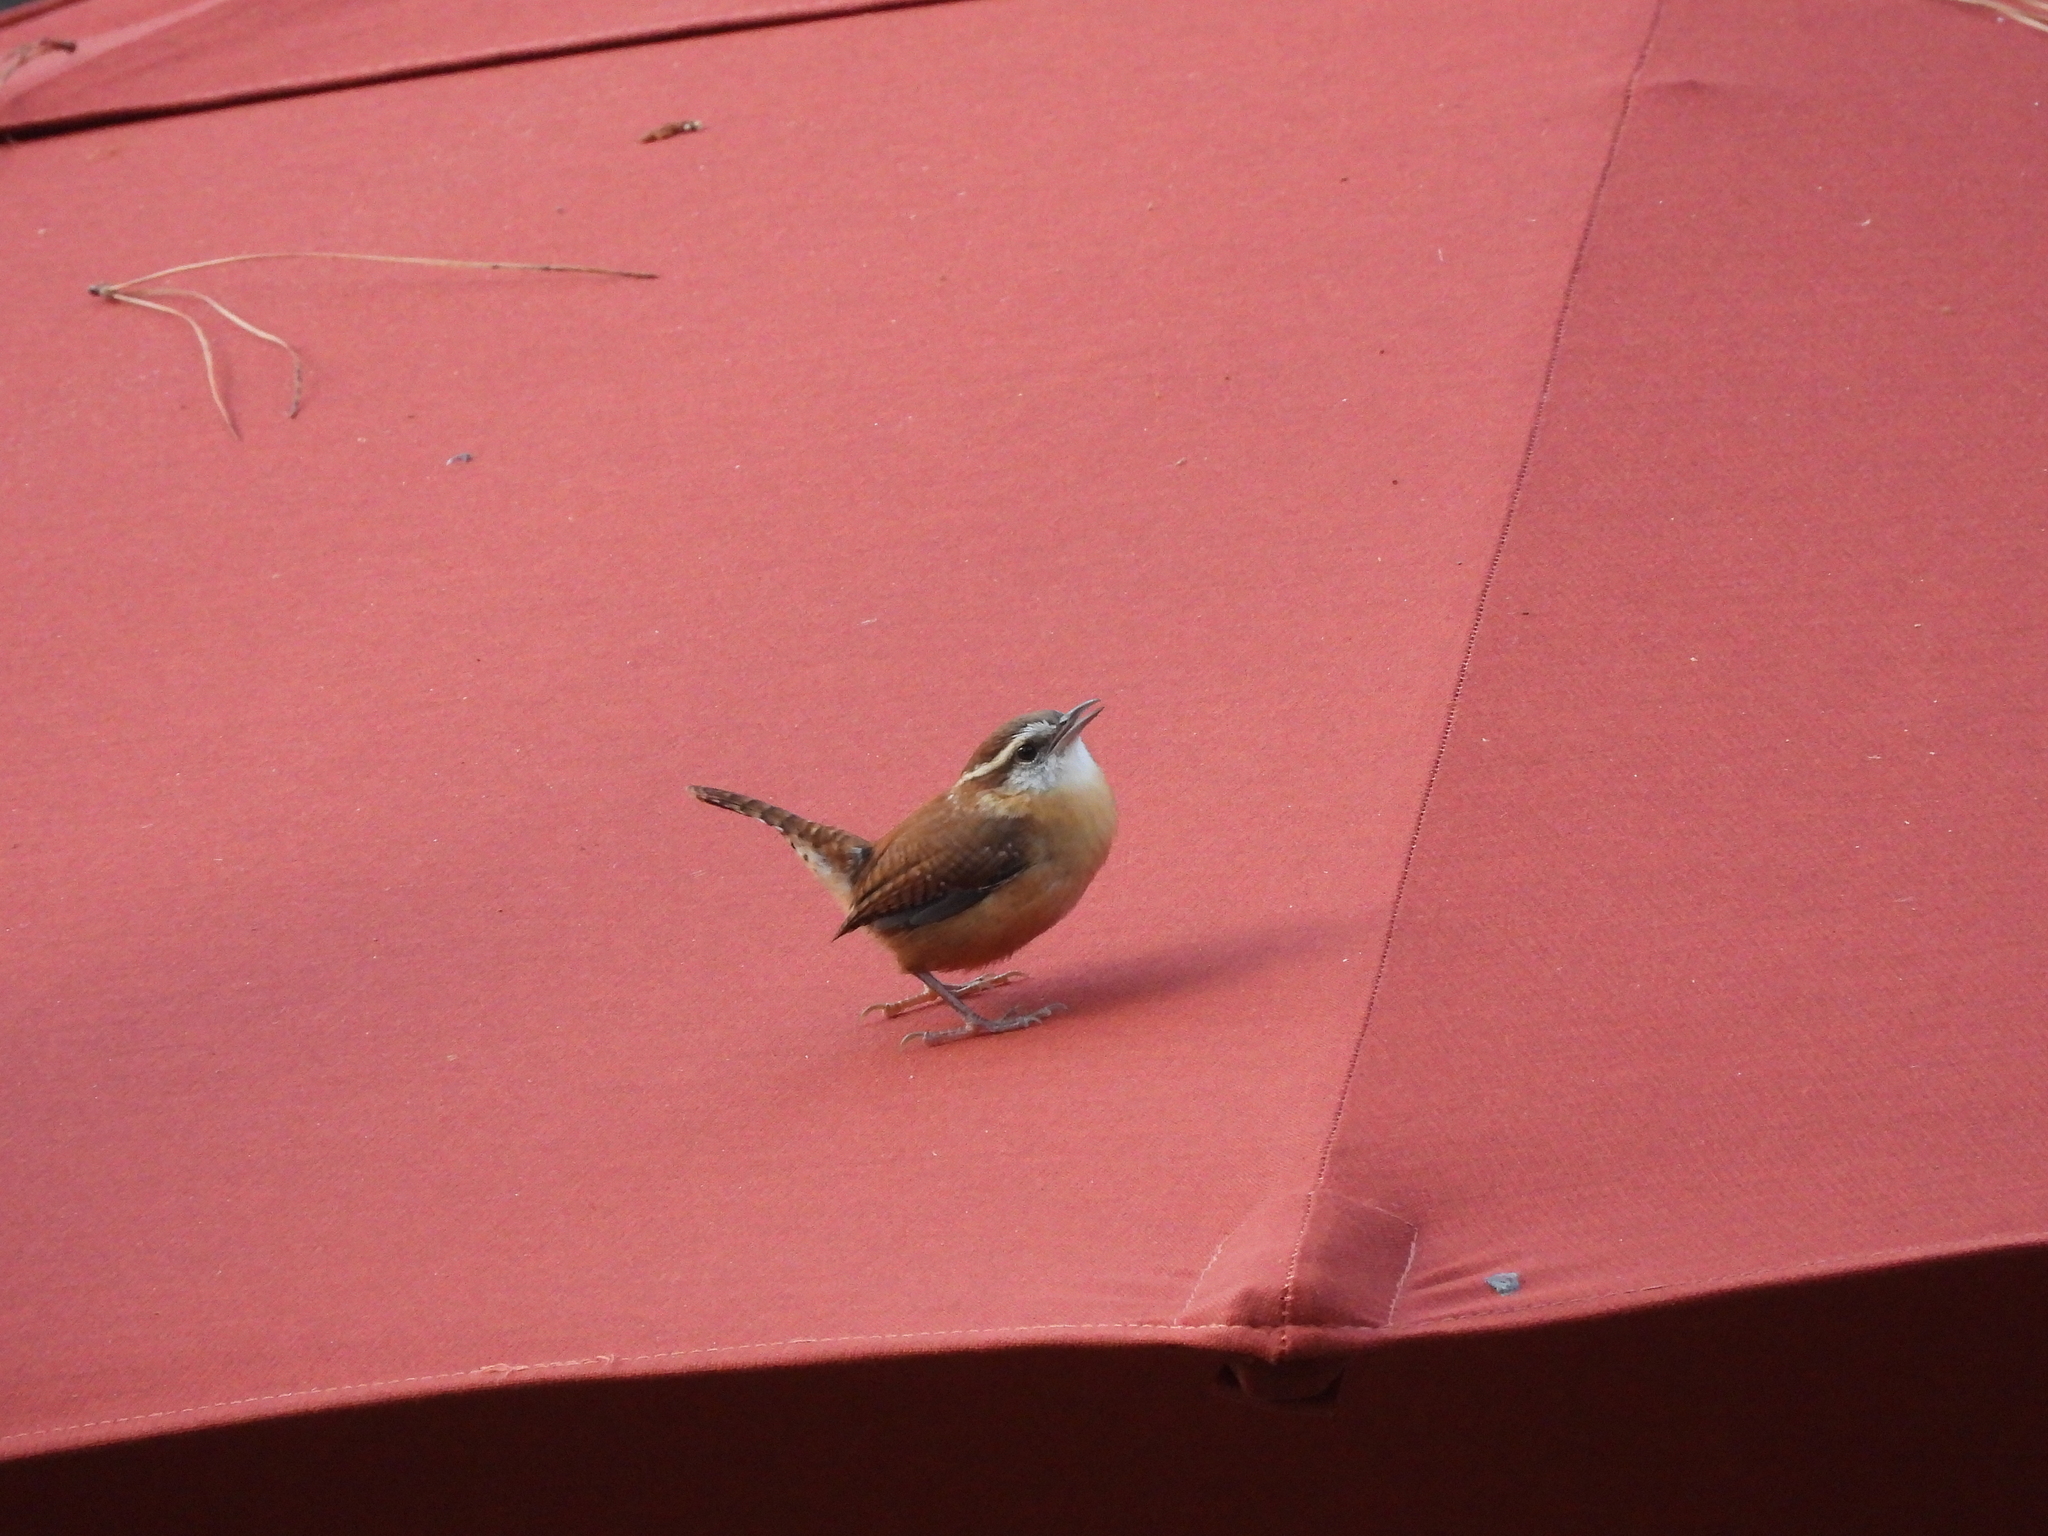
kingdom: Animalia
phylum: Chordata
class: Aves
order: Passeriformes
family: Troglodytidae
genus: Thryothorus
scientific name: Thryothorus ludovicianus
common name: Carolina wren
